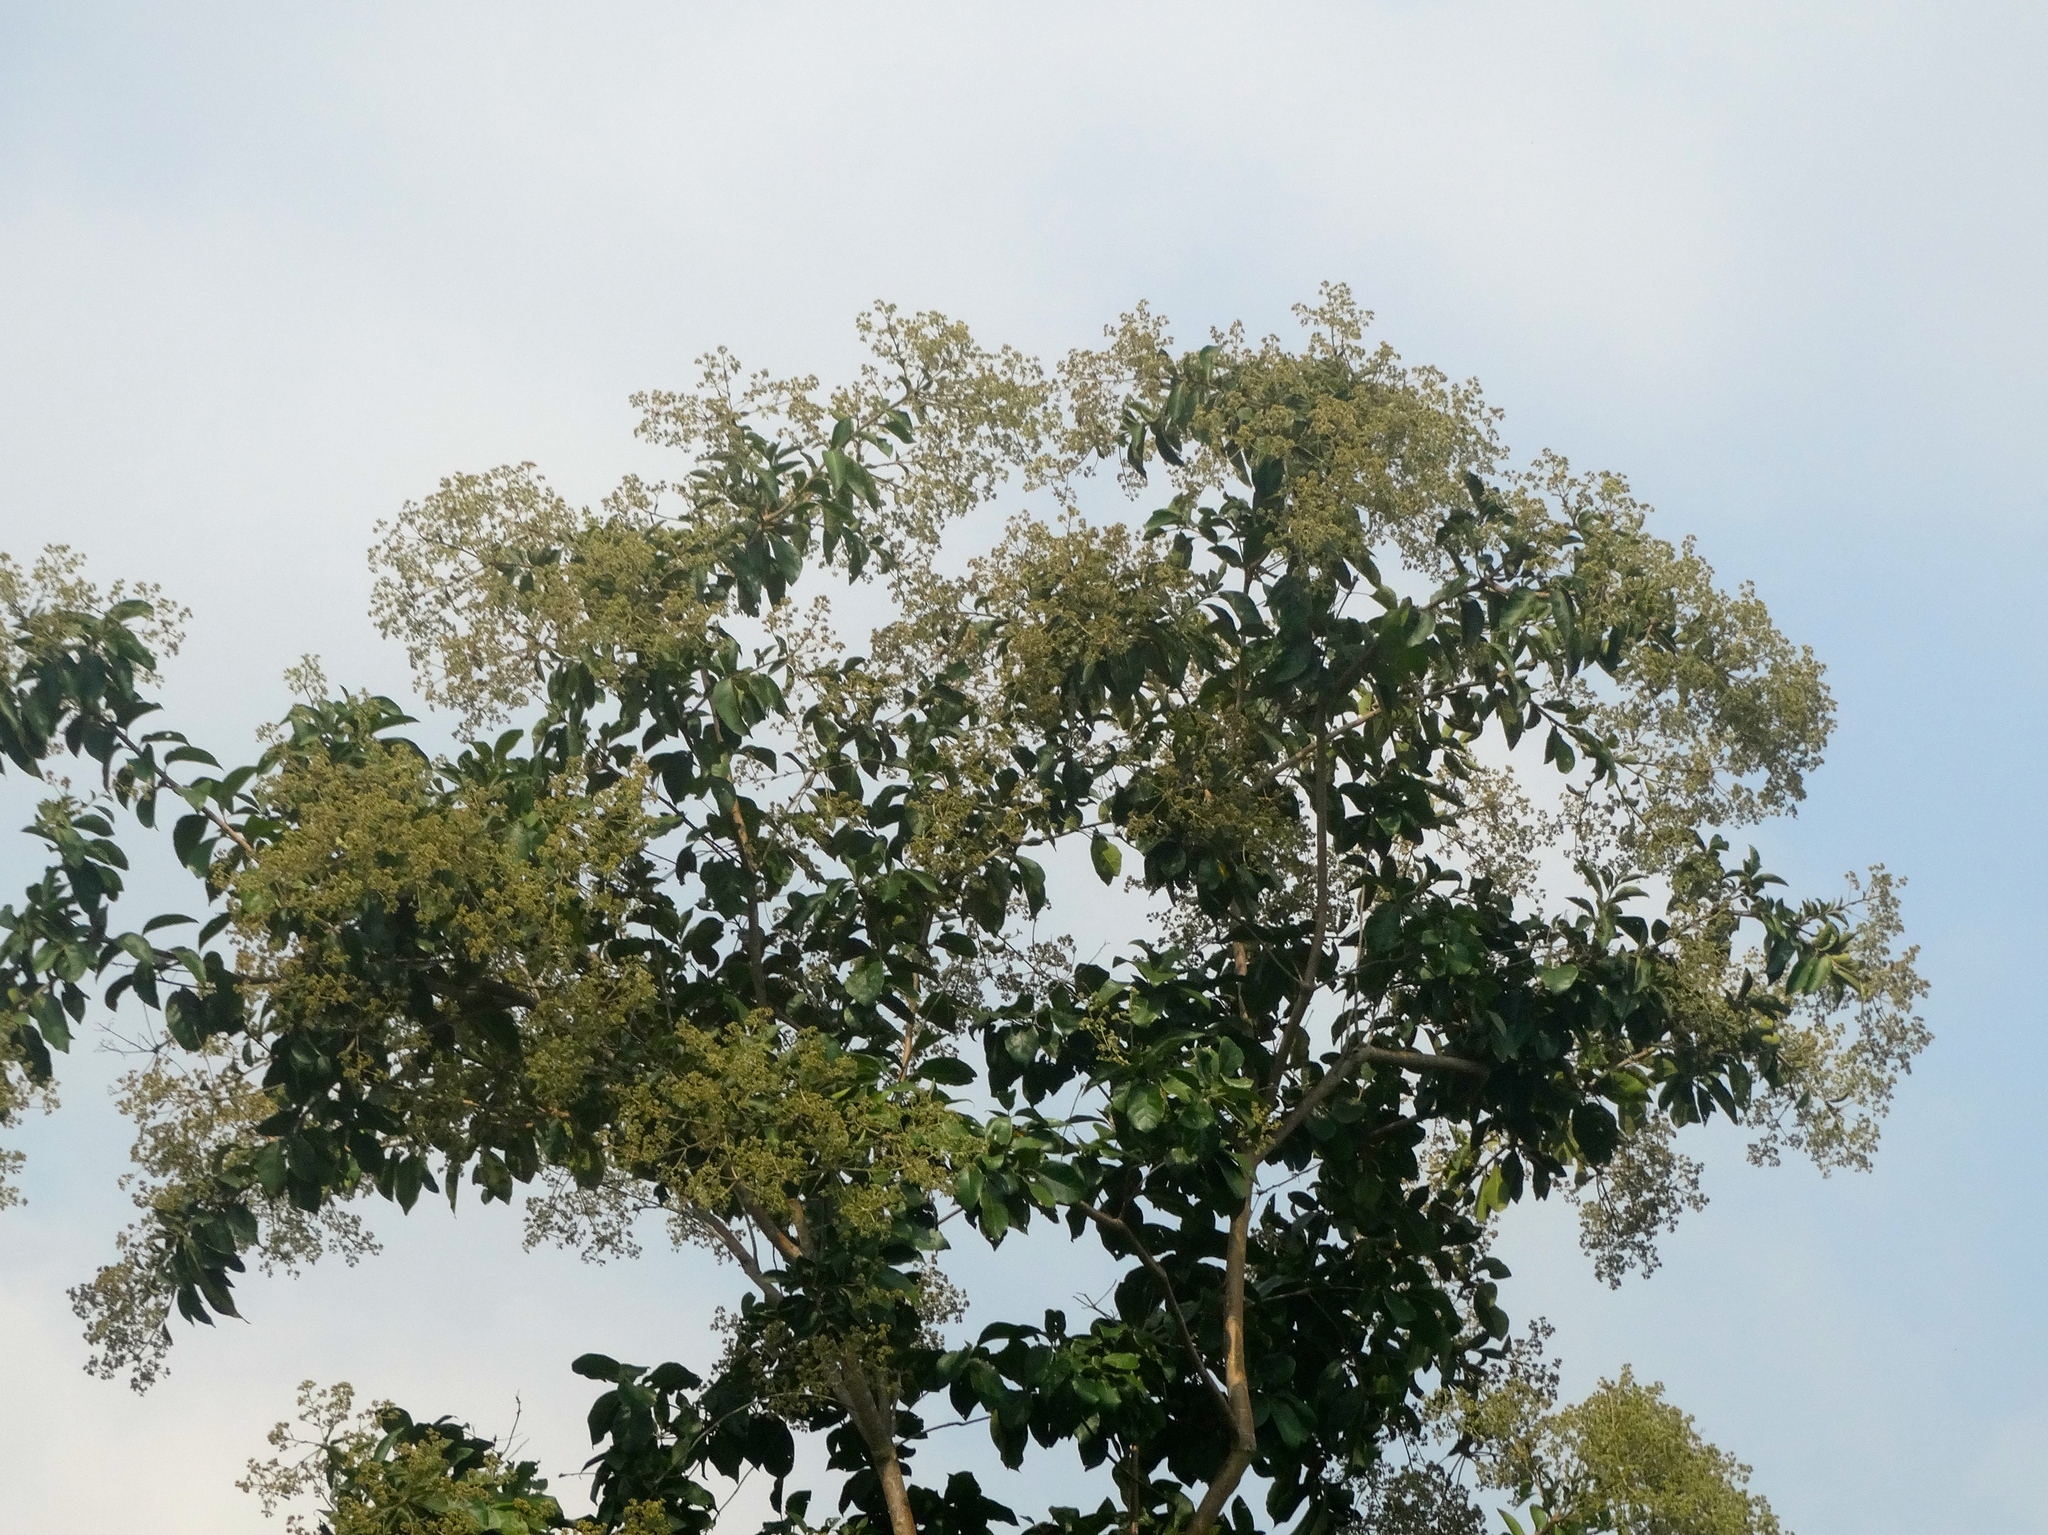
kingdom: Plantae
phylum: Tracheophyta
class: Magnoliopsida
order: Boraginales
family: Cordiaceae
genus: Cordia
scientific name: Cordia alliodora
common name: Spanish elm
